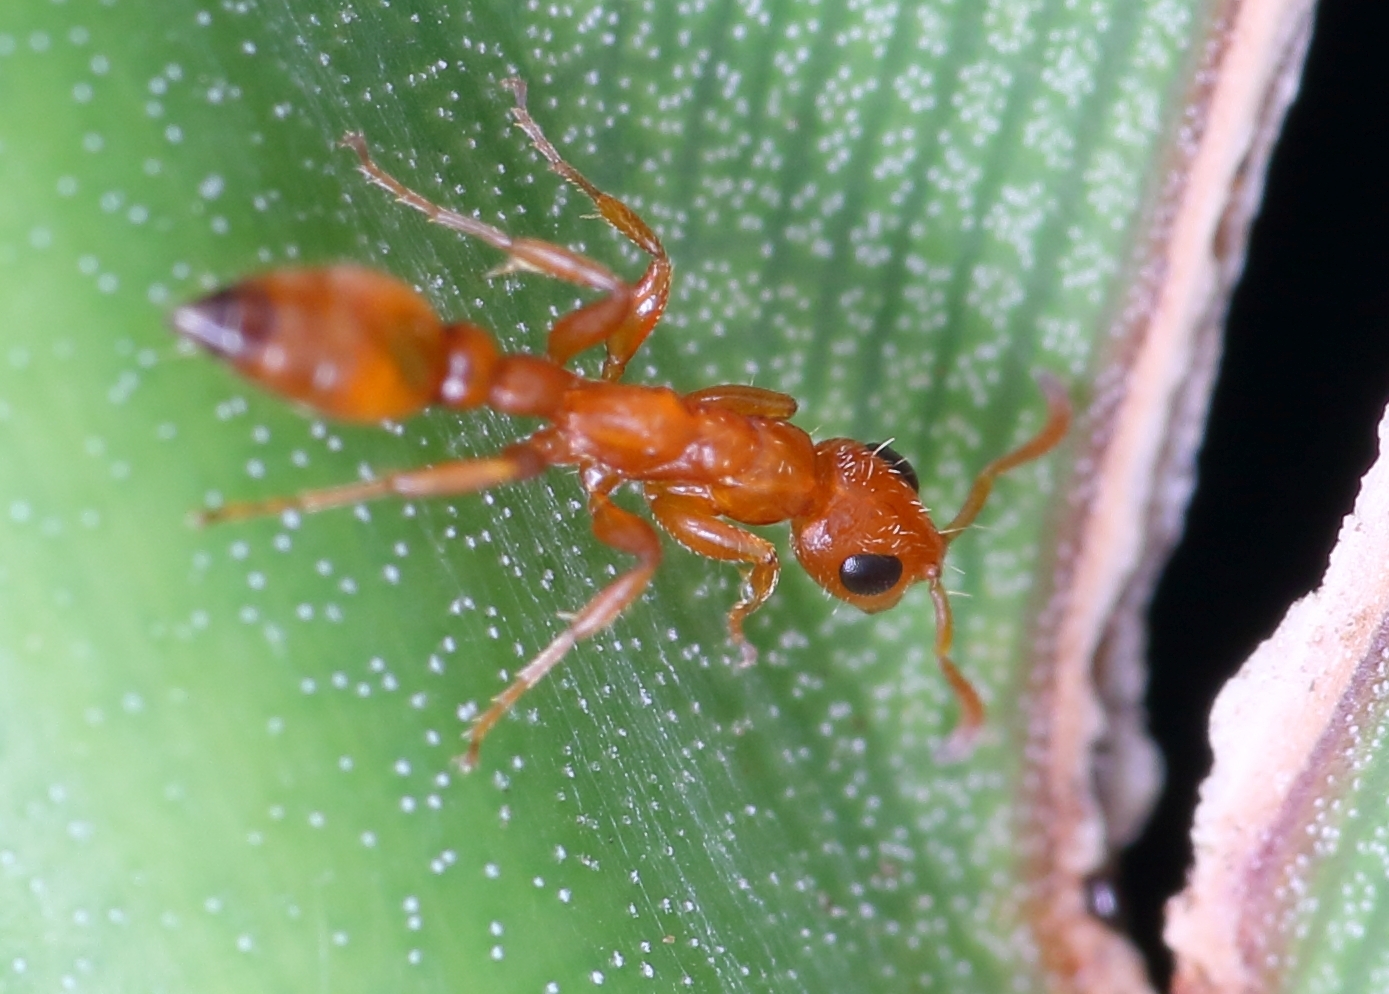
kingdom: Animalia
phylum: Arthropoda
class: Insecta
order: Hymenoptera
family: Formicidae
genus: Tetraponera
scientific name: Tetraponera ambigua
